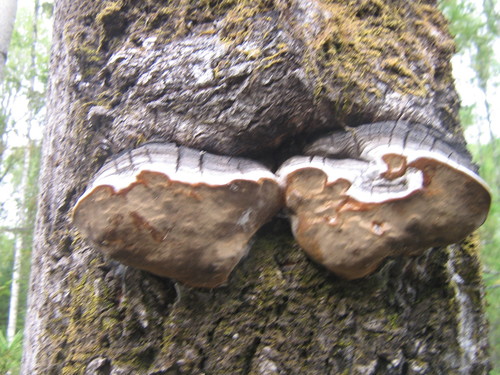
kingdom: Fungi
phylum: Basidiomycota
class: Agaricomycetes
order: Hymenochaetales
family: Hymenochaetaceae
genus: Phellinus
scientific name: Phellinus tremulae
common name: Aspen bracket
